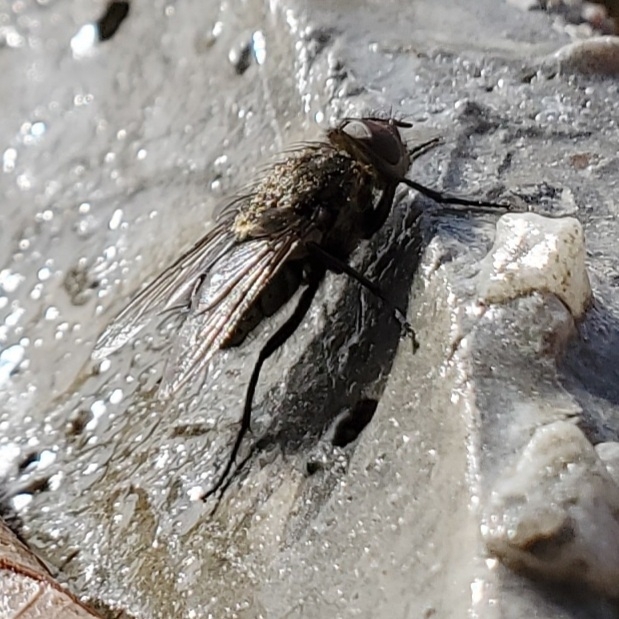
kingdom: Animalia
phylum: Arthropoda
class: Insecta
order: Diptera
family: Polleniidae
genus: Pollenia
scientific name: Pollenia
